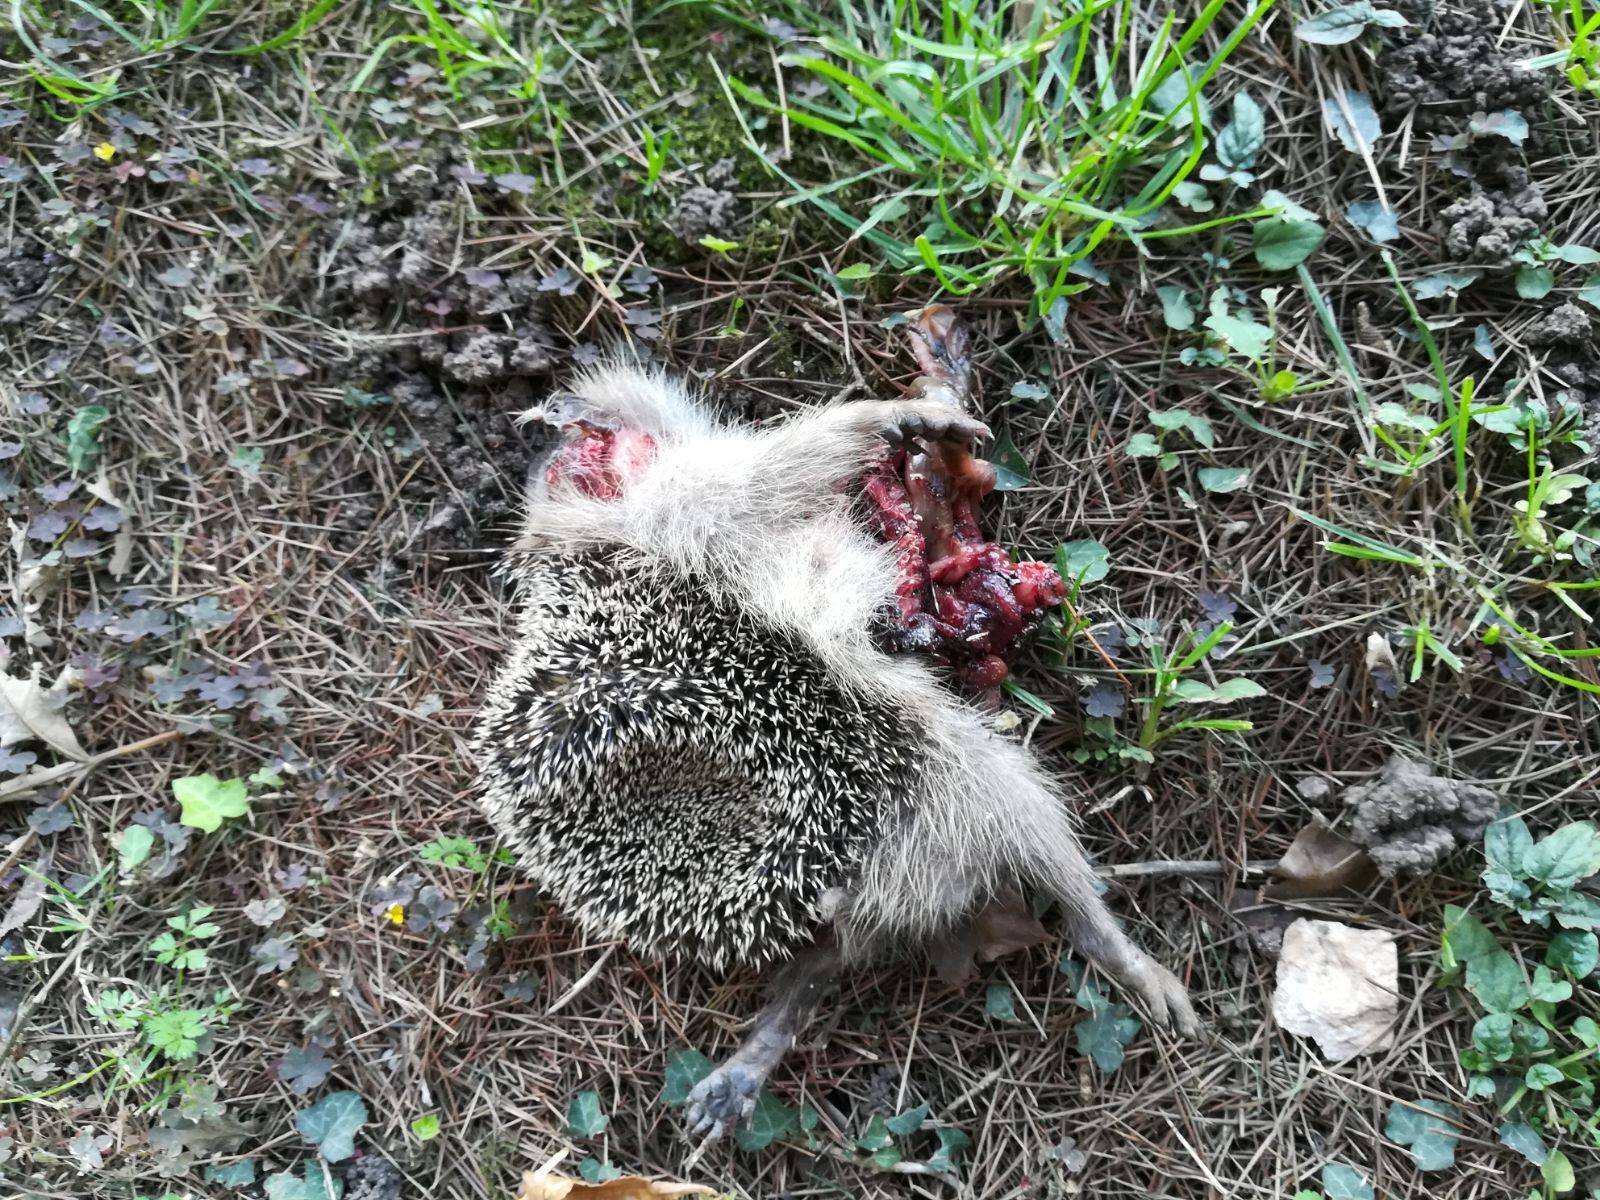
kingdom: Animalia
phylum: Chordata
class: Mammalia
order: Erinaceomorpha
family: Erinaceidae
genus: Erinaceus
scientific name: Erinaceus europaeus
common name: West european hedgehog
